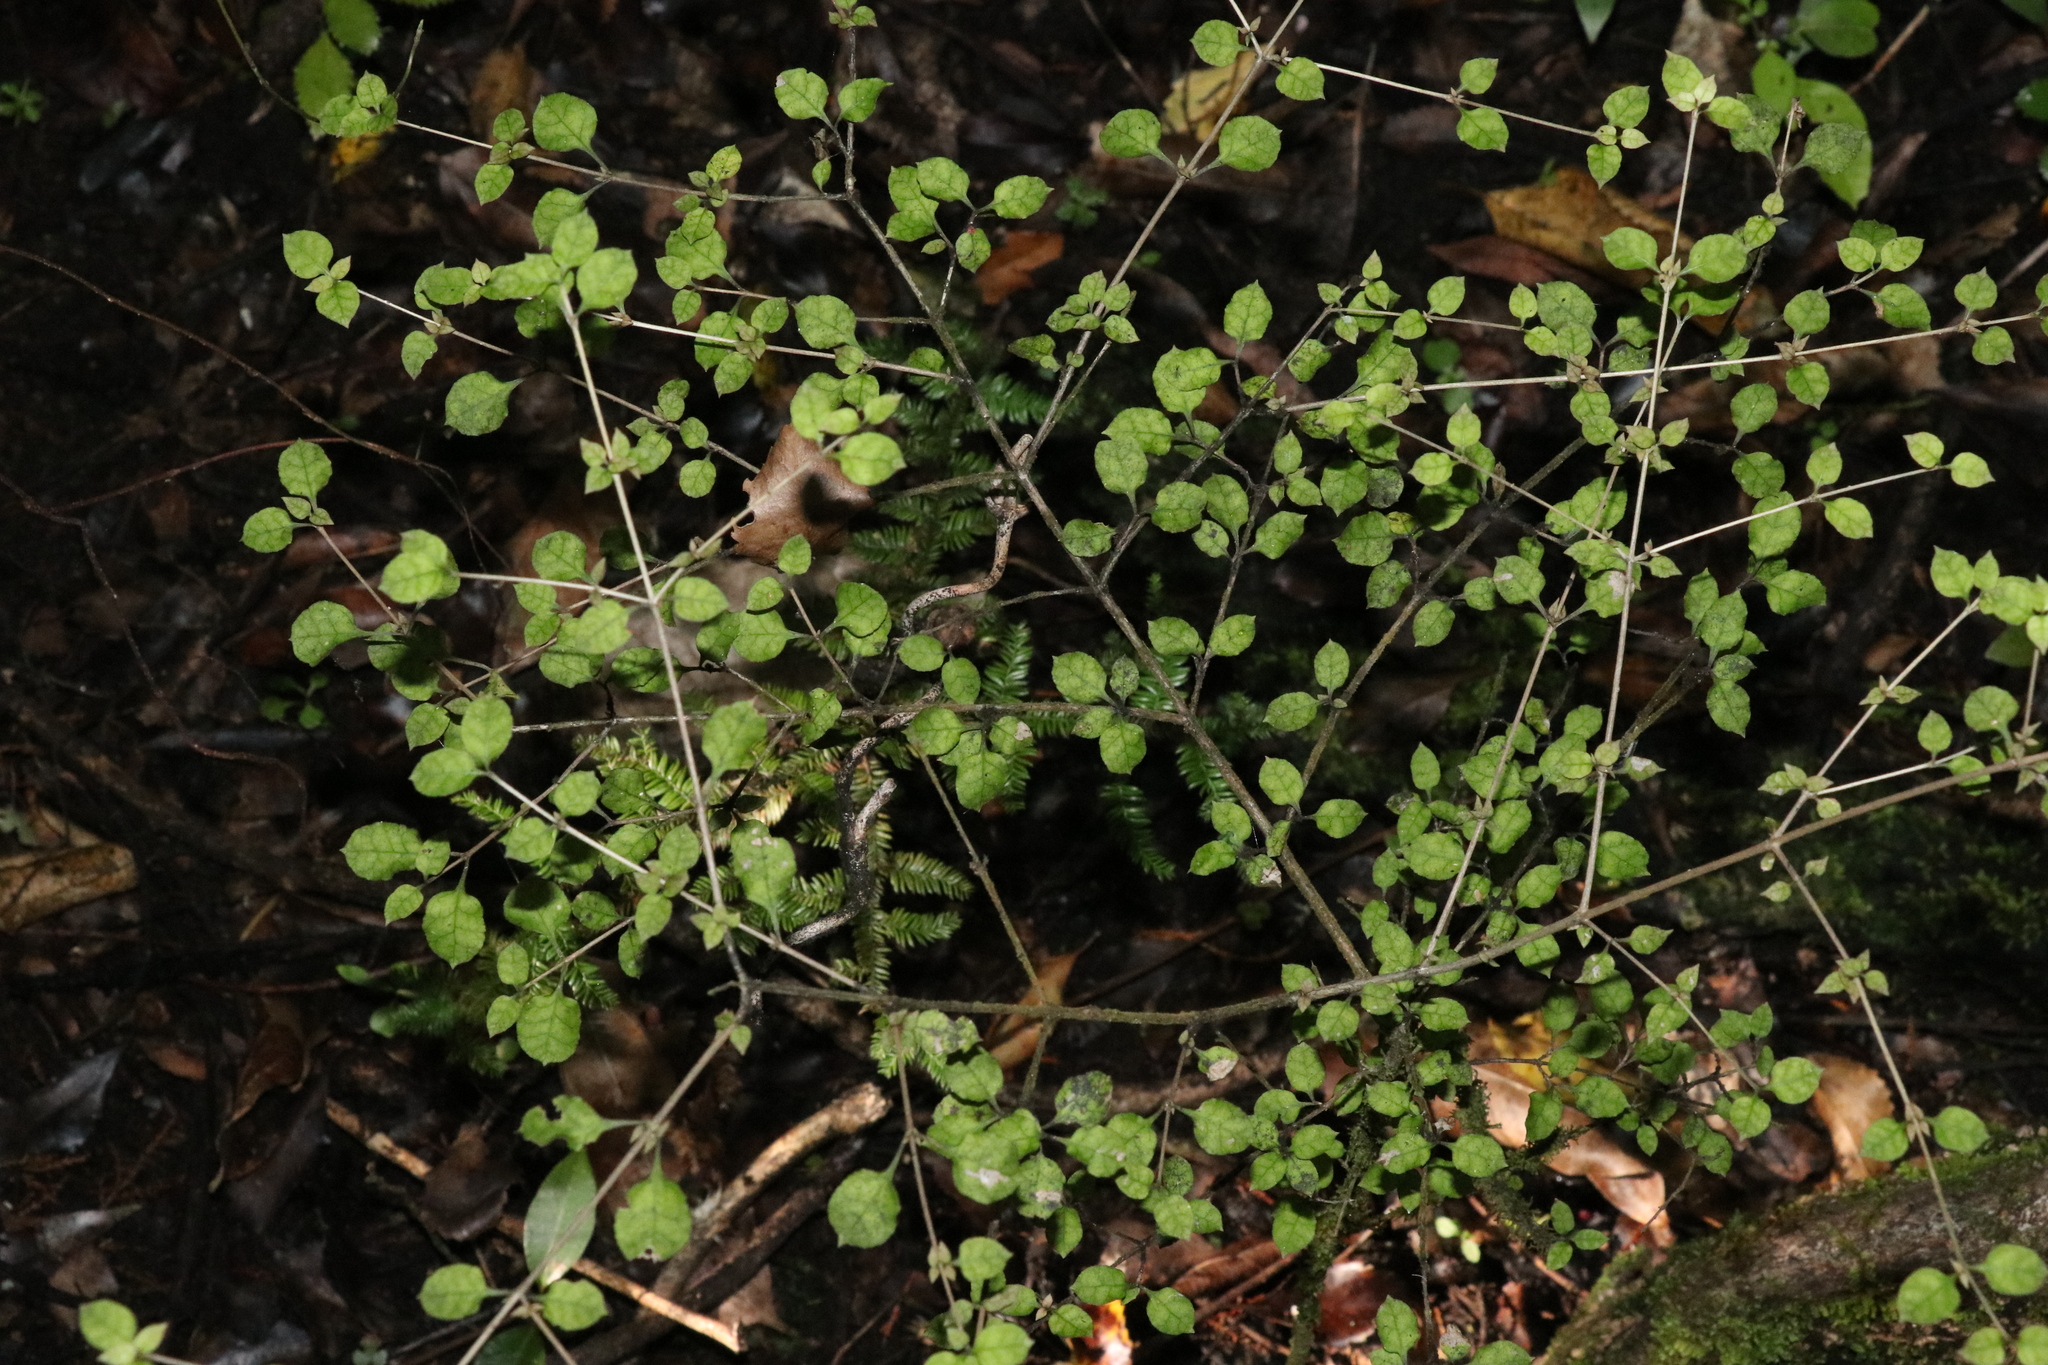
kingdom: Plantae
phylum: Tracheophyta
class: Magnoliopsida
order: Gentianales
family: Rubiaceae
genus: Coprosma
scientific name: Coprosma areolata
